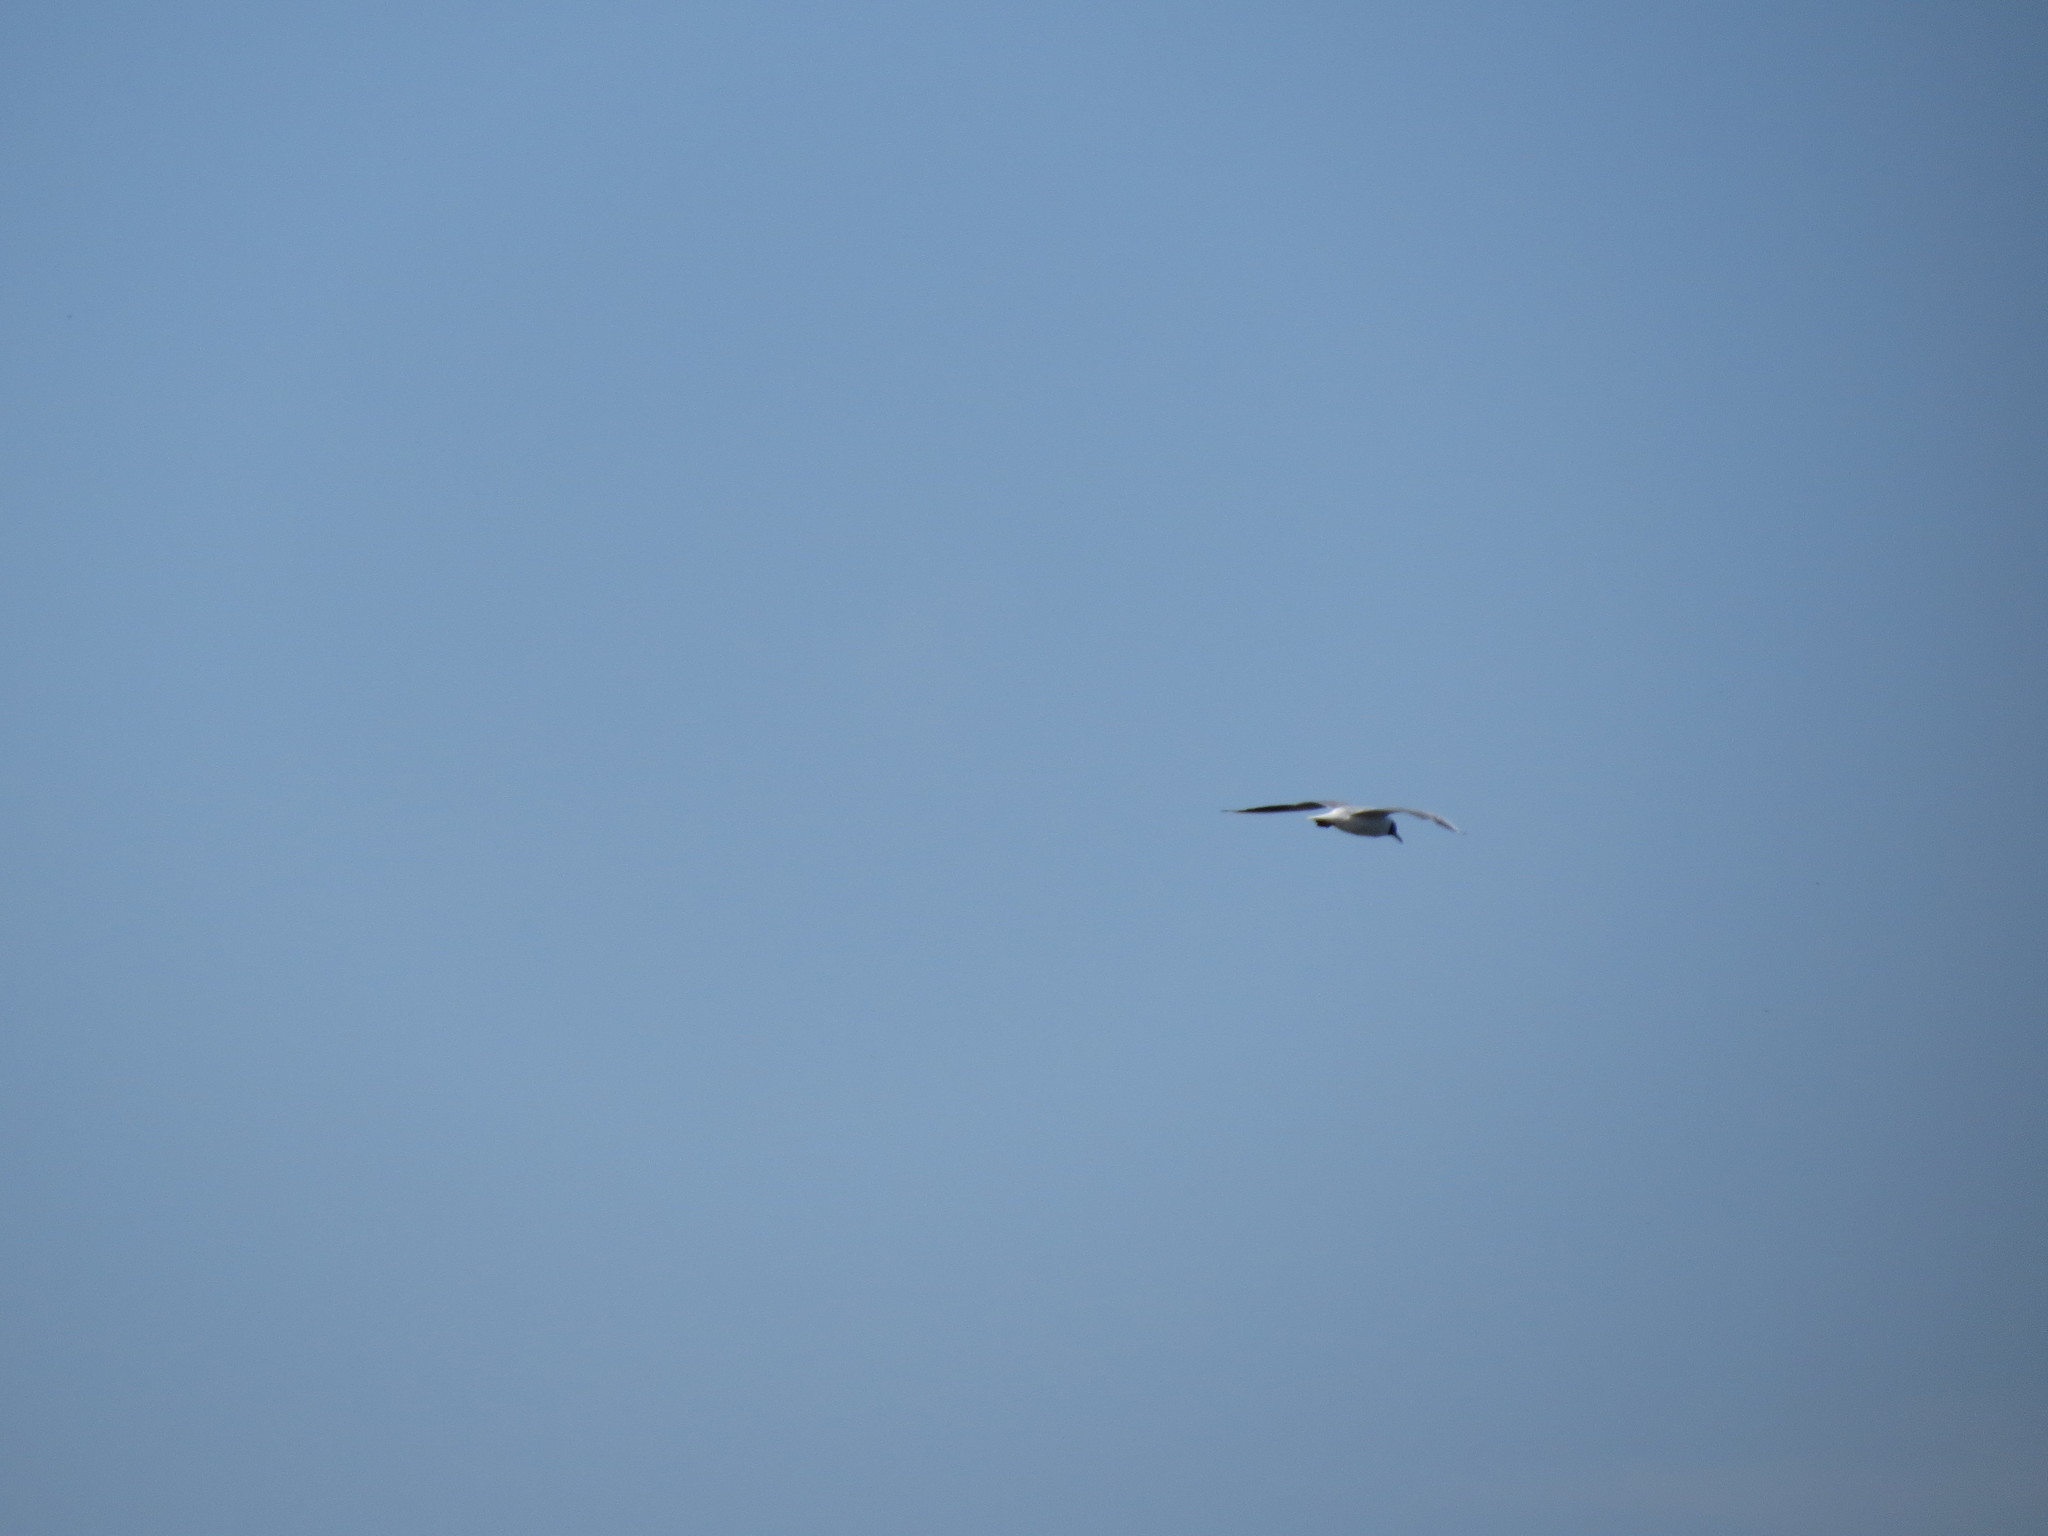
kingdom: Animalia
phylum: Chordata
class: Aves
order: Charadriiformes
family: Laridae
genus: Chroicocephalus
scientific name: Chroicocephalus ridibundus
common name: Black-headed gull
